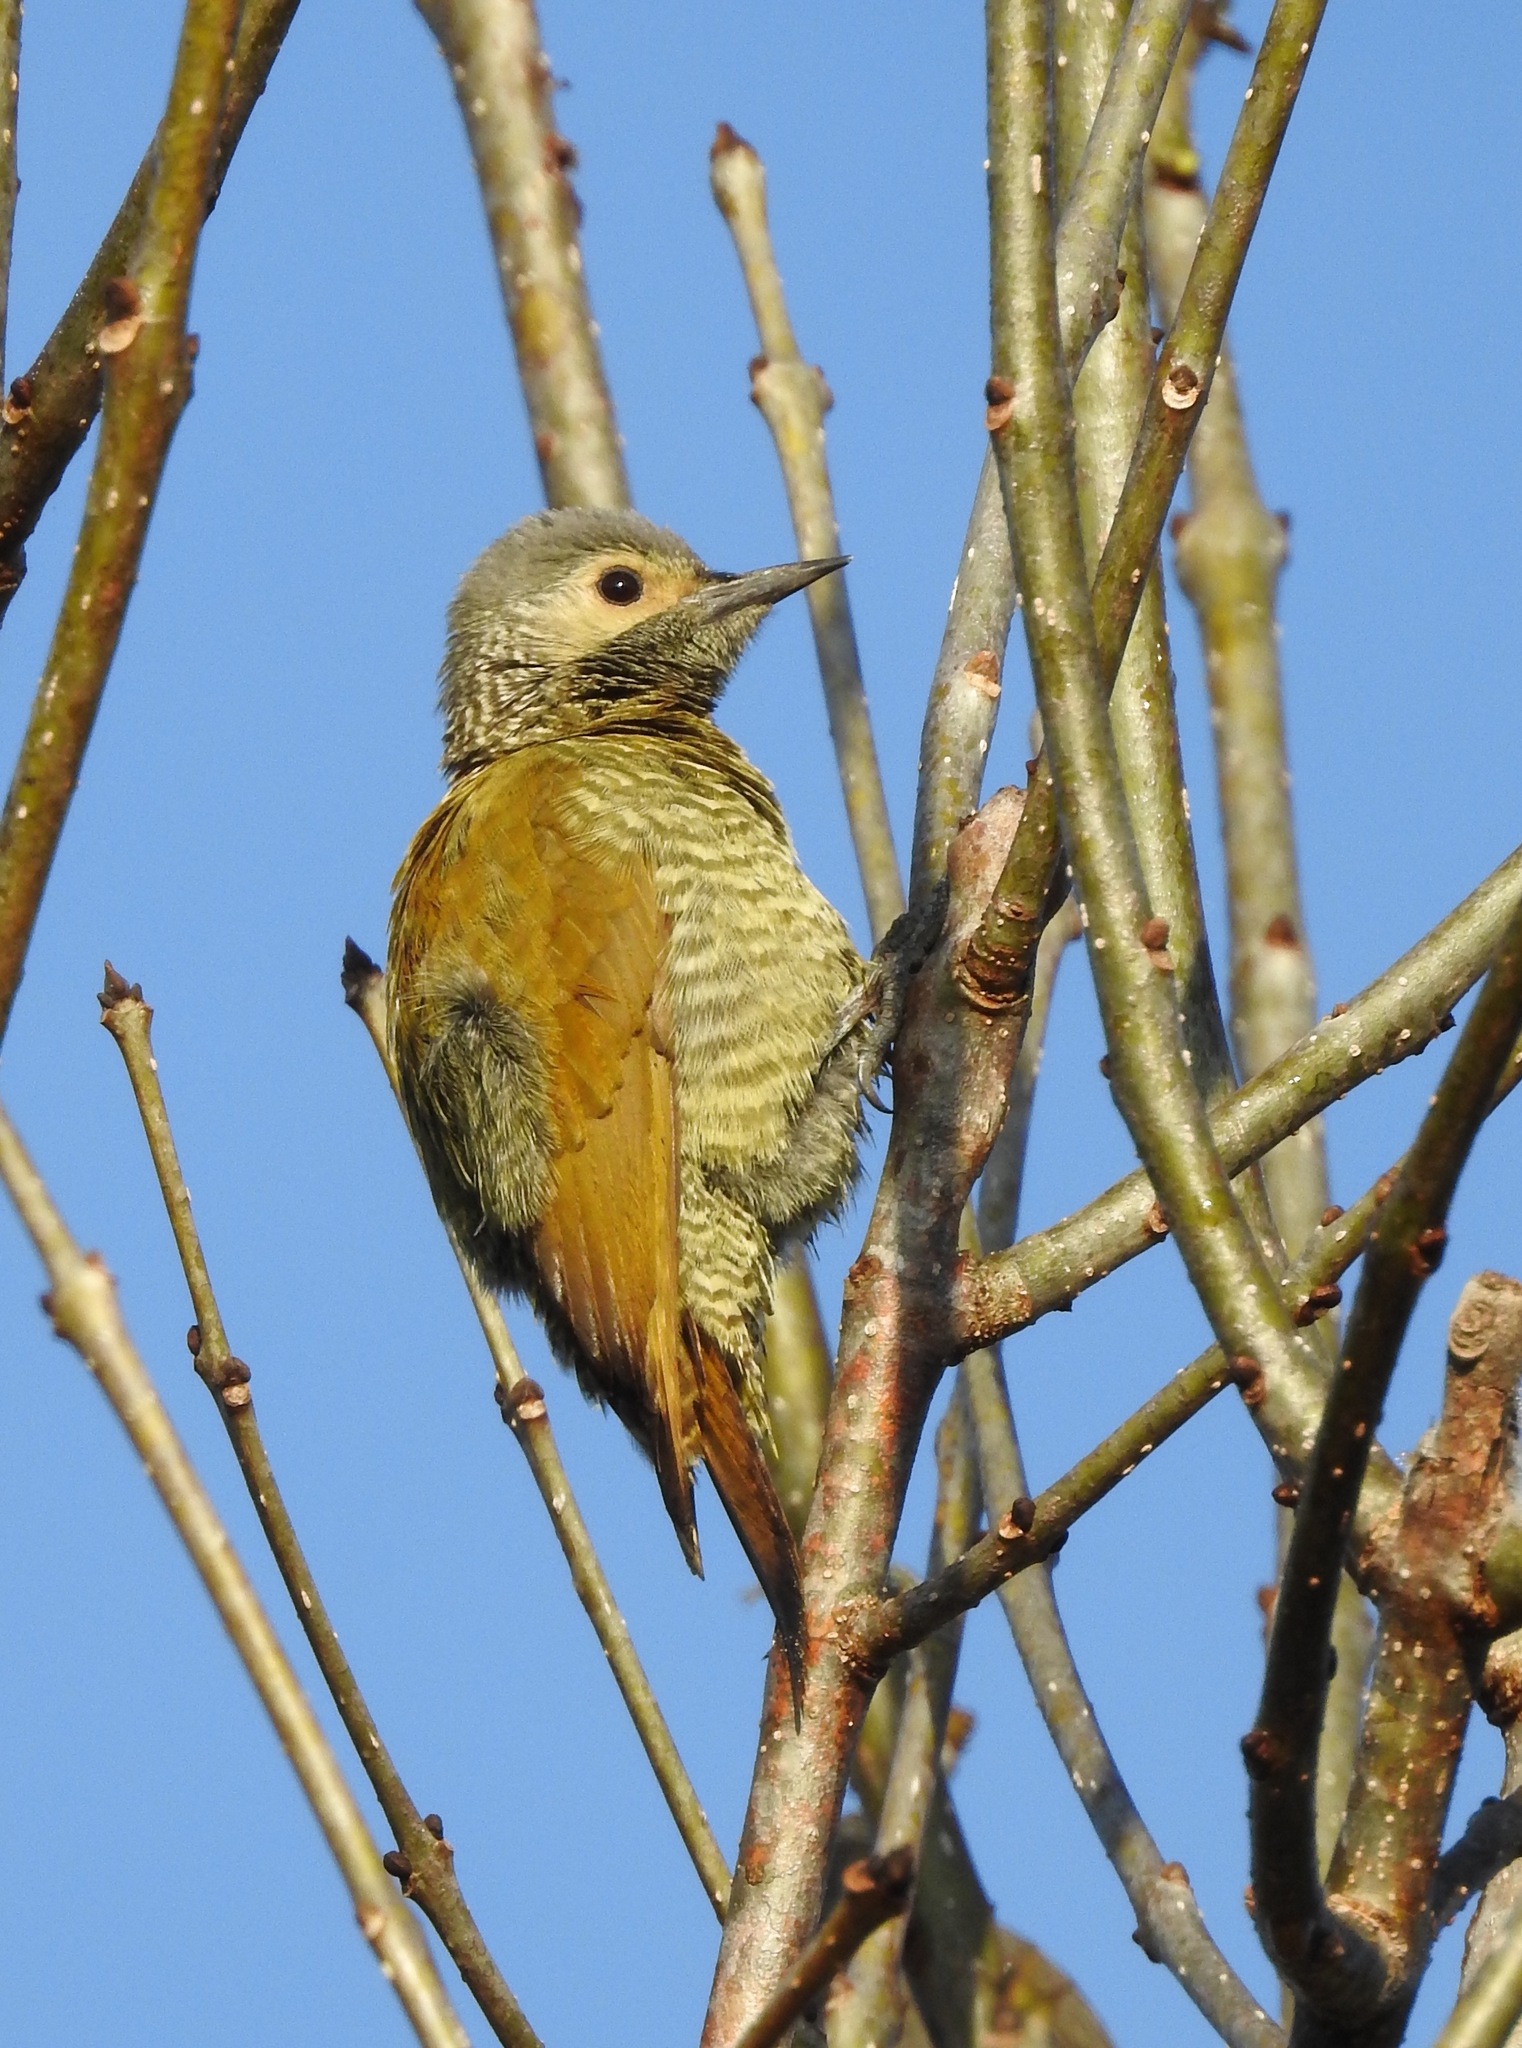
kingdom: Animalia
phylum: Chordata
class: Aves
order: Piciformes
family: Picidae
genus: Colaptes
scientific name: Colaptes auricularis
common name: Grey-crowned woodpecker
